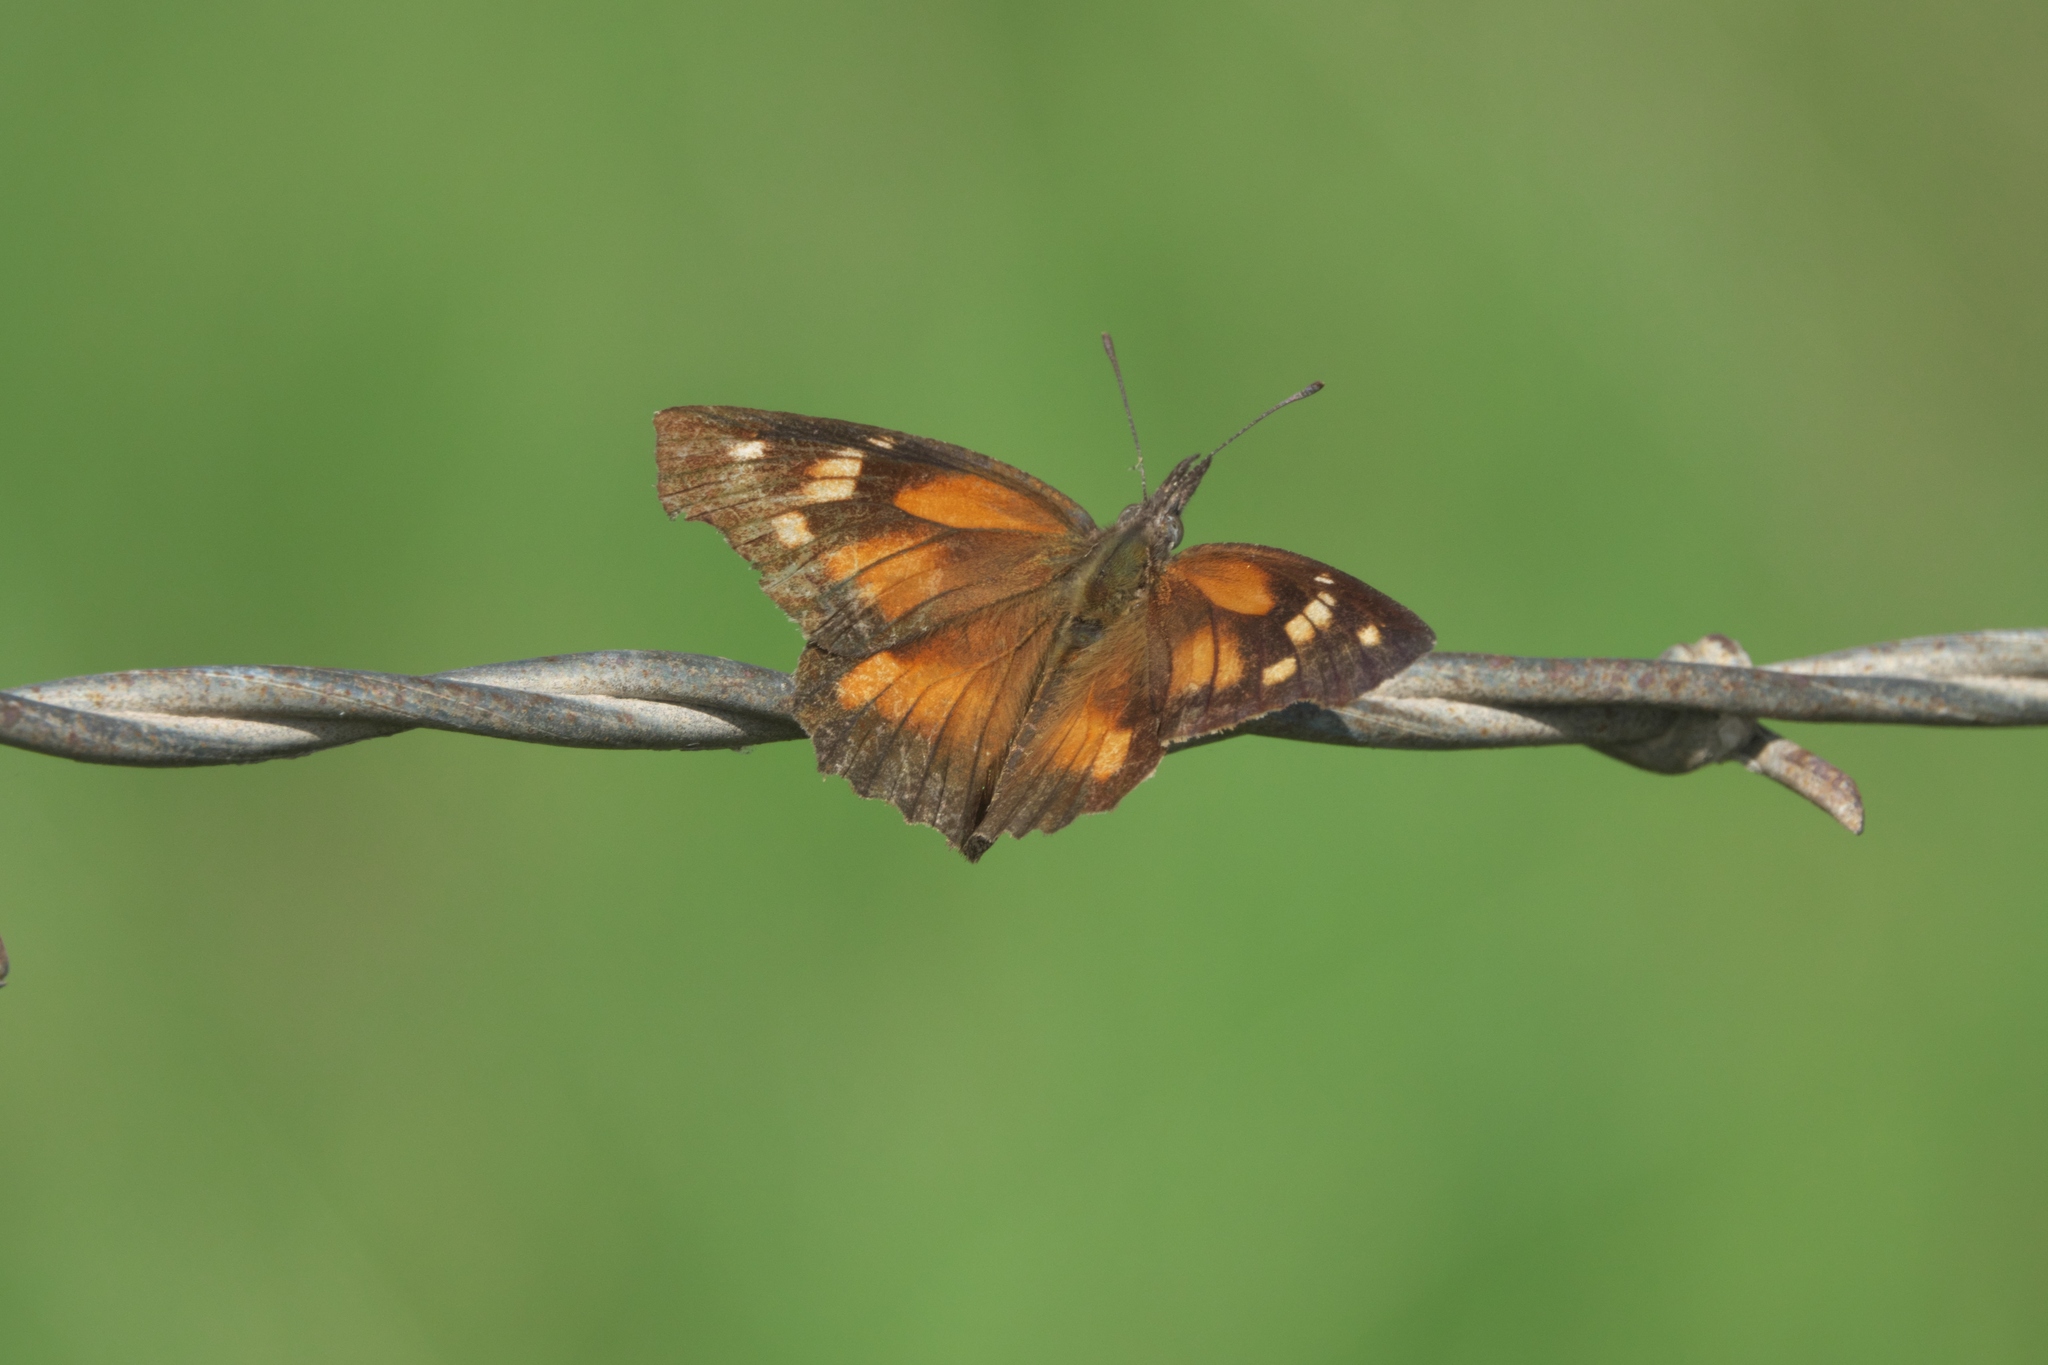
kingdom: Animalia
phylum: Arthropoda
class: Insecta
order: Lepidoptera
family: Nymphalidae
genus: Libytheana
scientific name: Libytheana carinenta
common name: American snout
